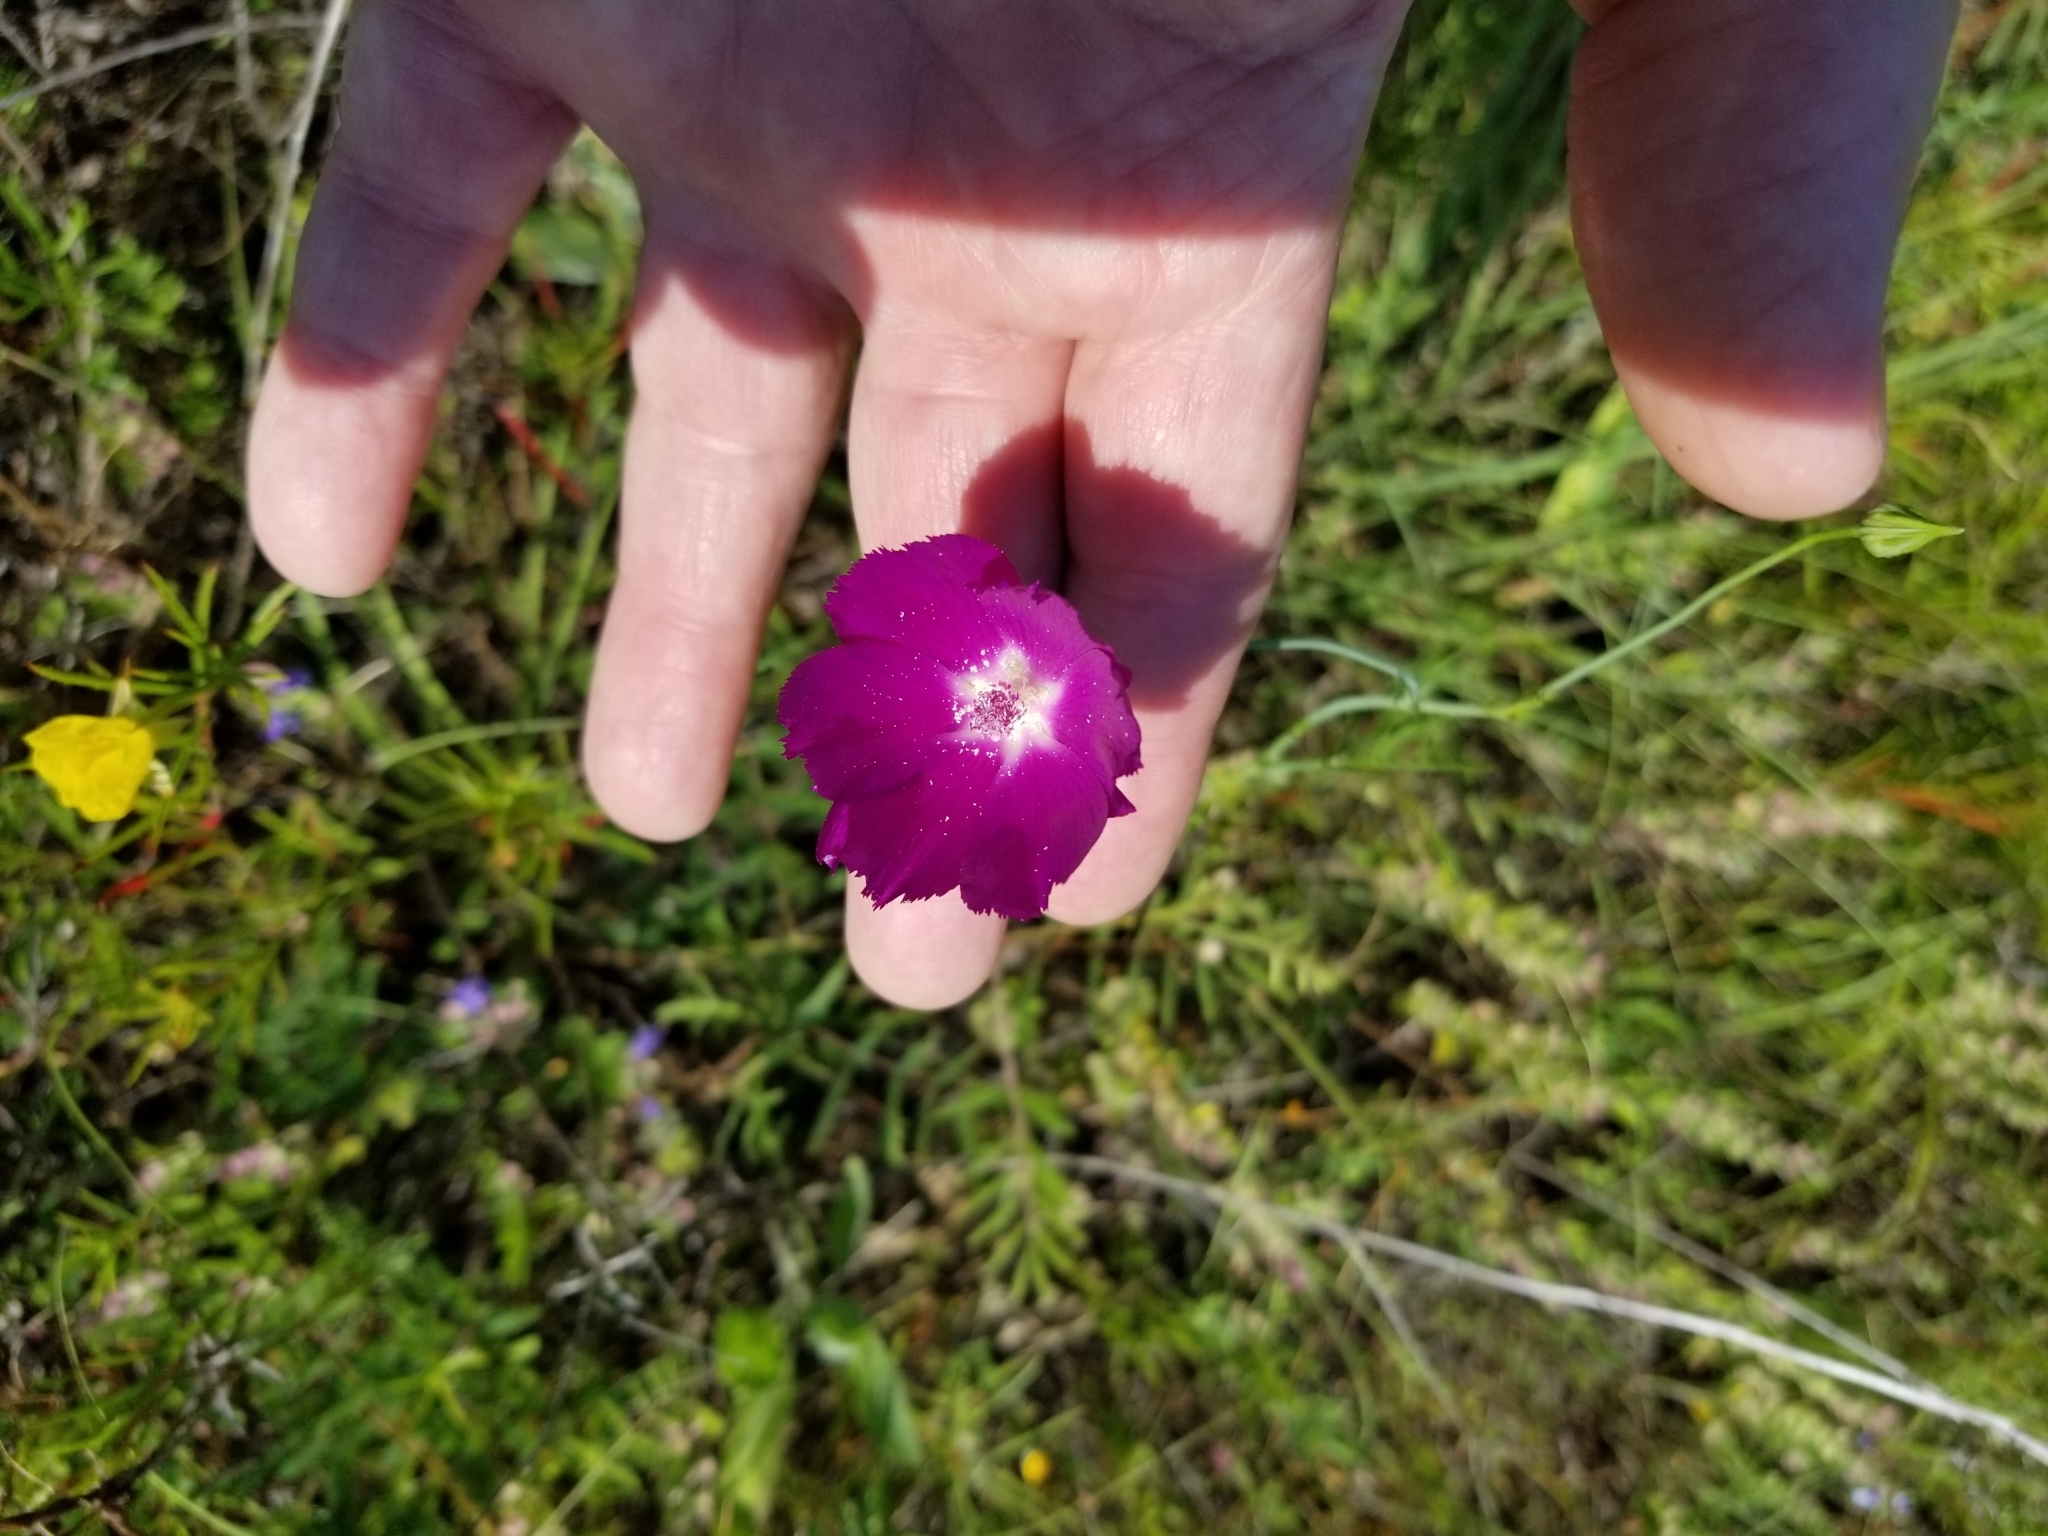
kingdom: Plantae
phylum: Tracheophyta
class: Magnoliopsida
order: Malvales
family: Malvaceae
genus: Callirhoe
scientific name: Callirhoe pedata
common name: Finger poppy-mallow
